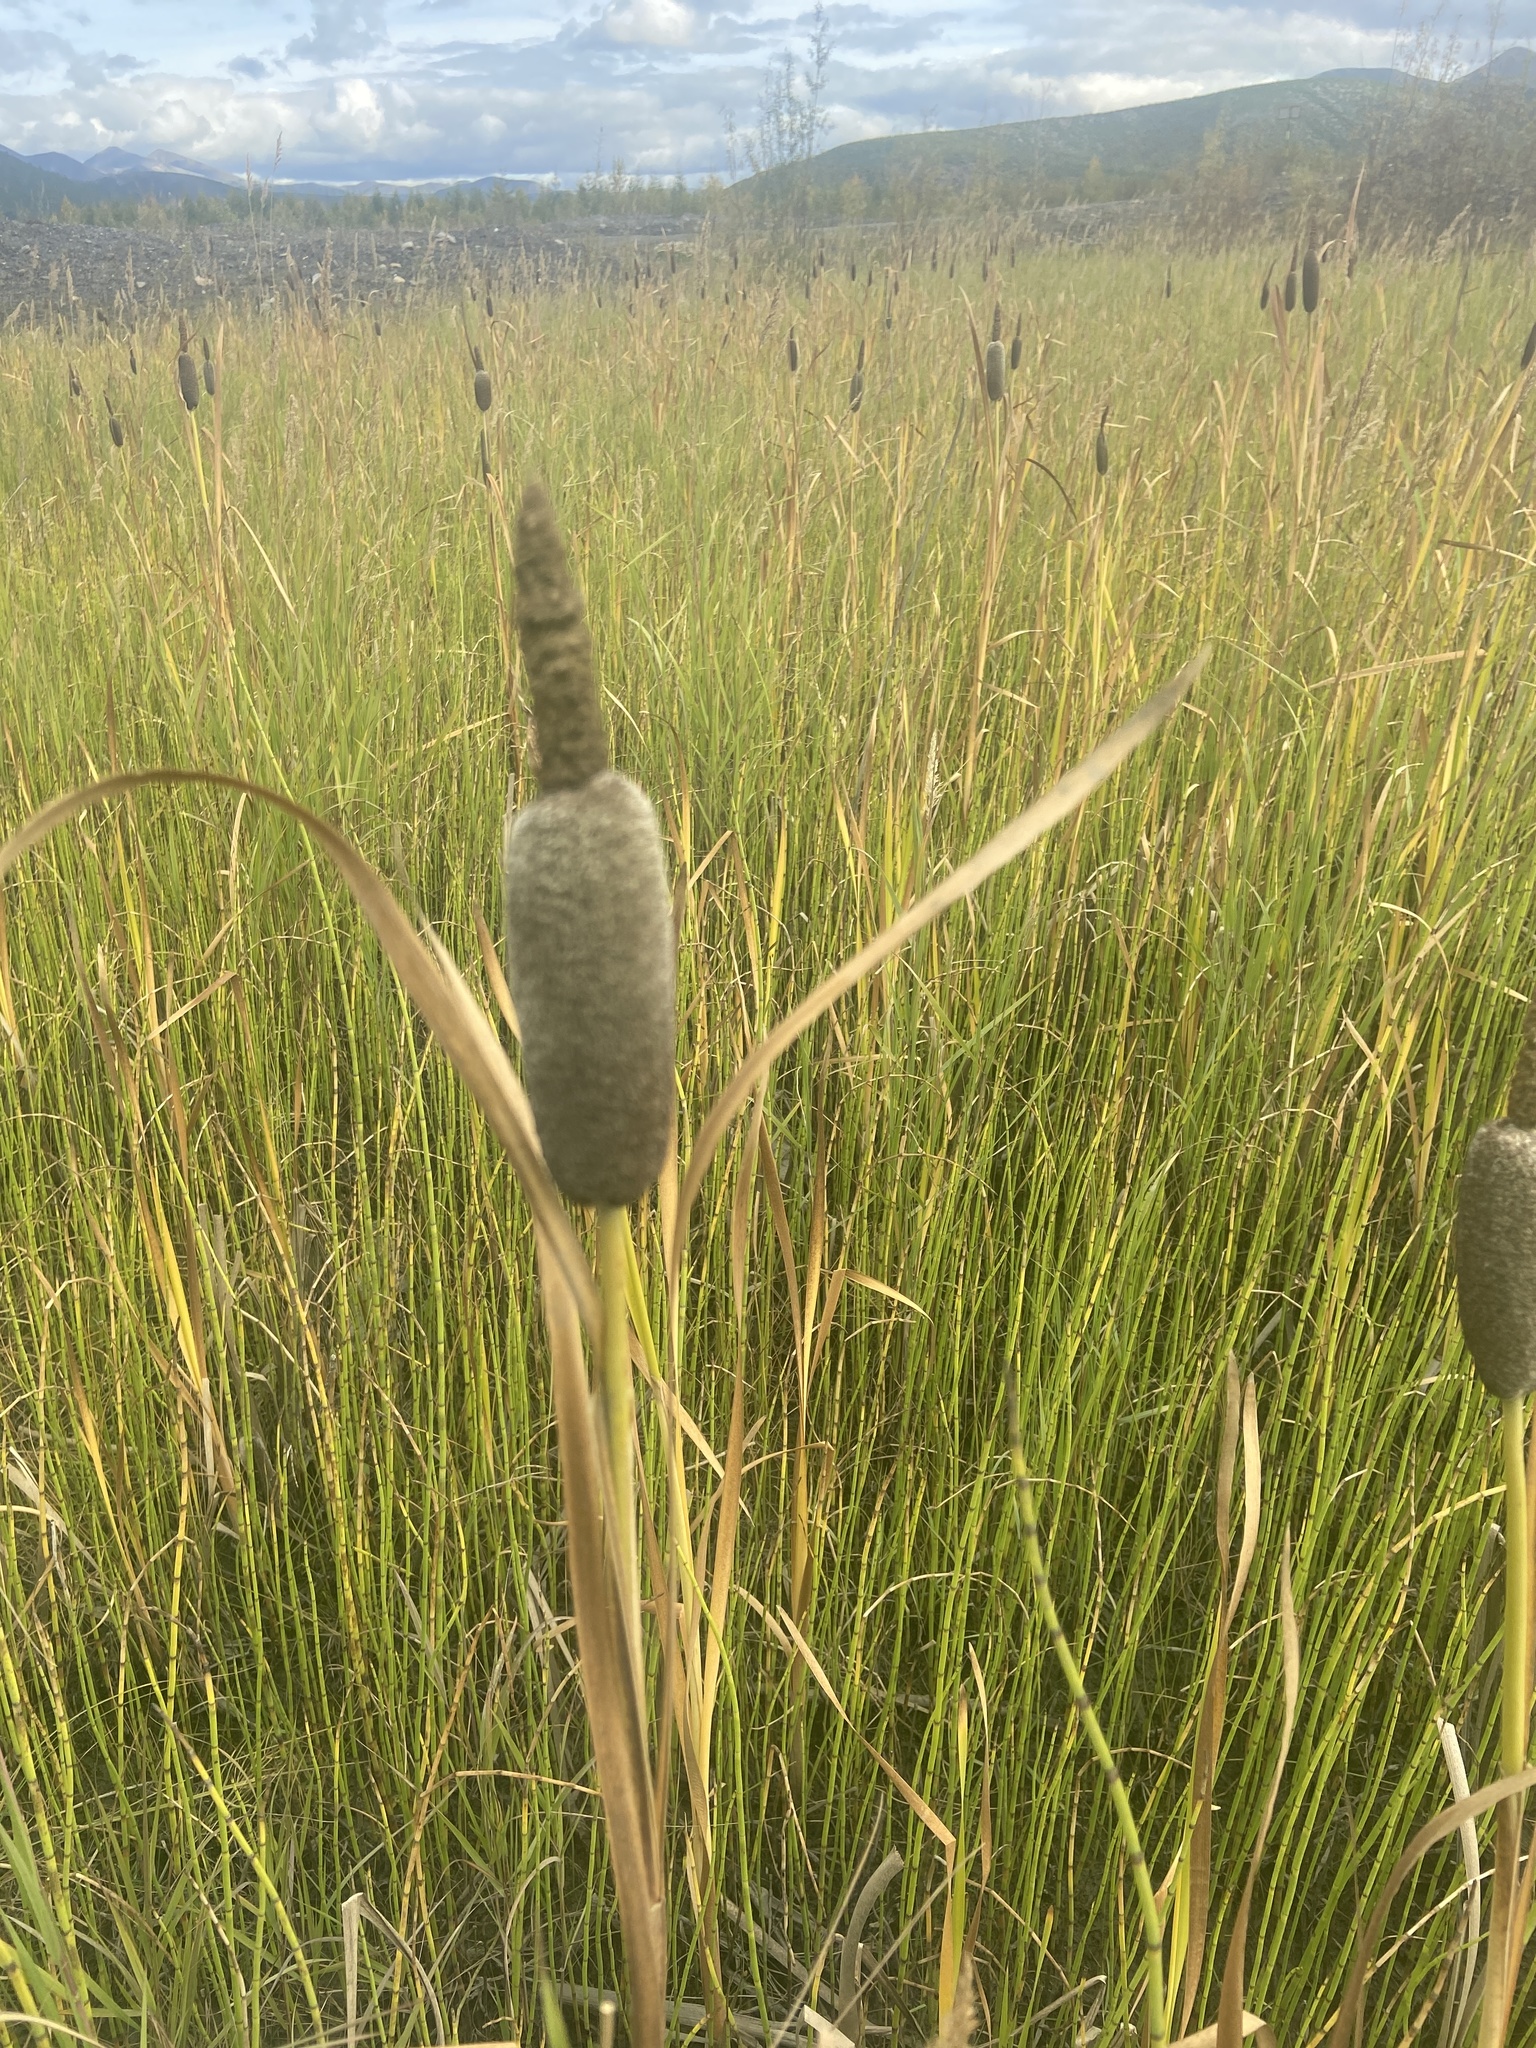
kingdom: Plantae
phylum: Tracheophyta
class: Liliopsida
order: Poales
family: Typhaceae
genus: Typha
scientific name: Typha latifolia
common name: Broadleaf cattail
